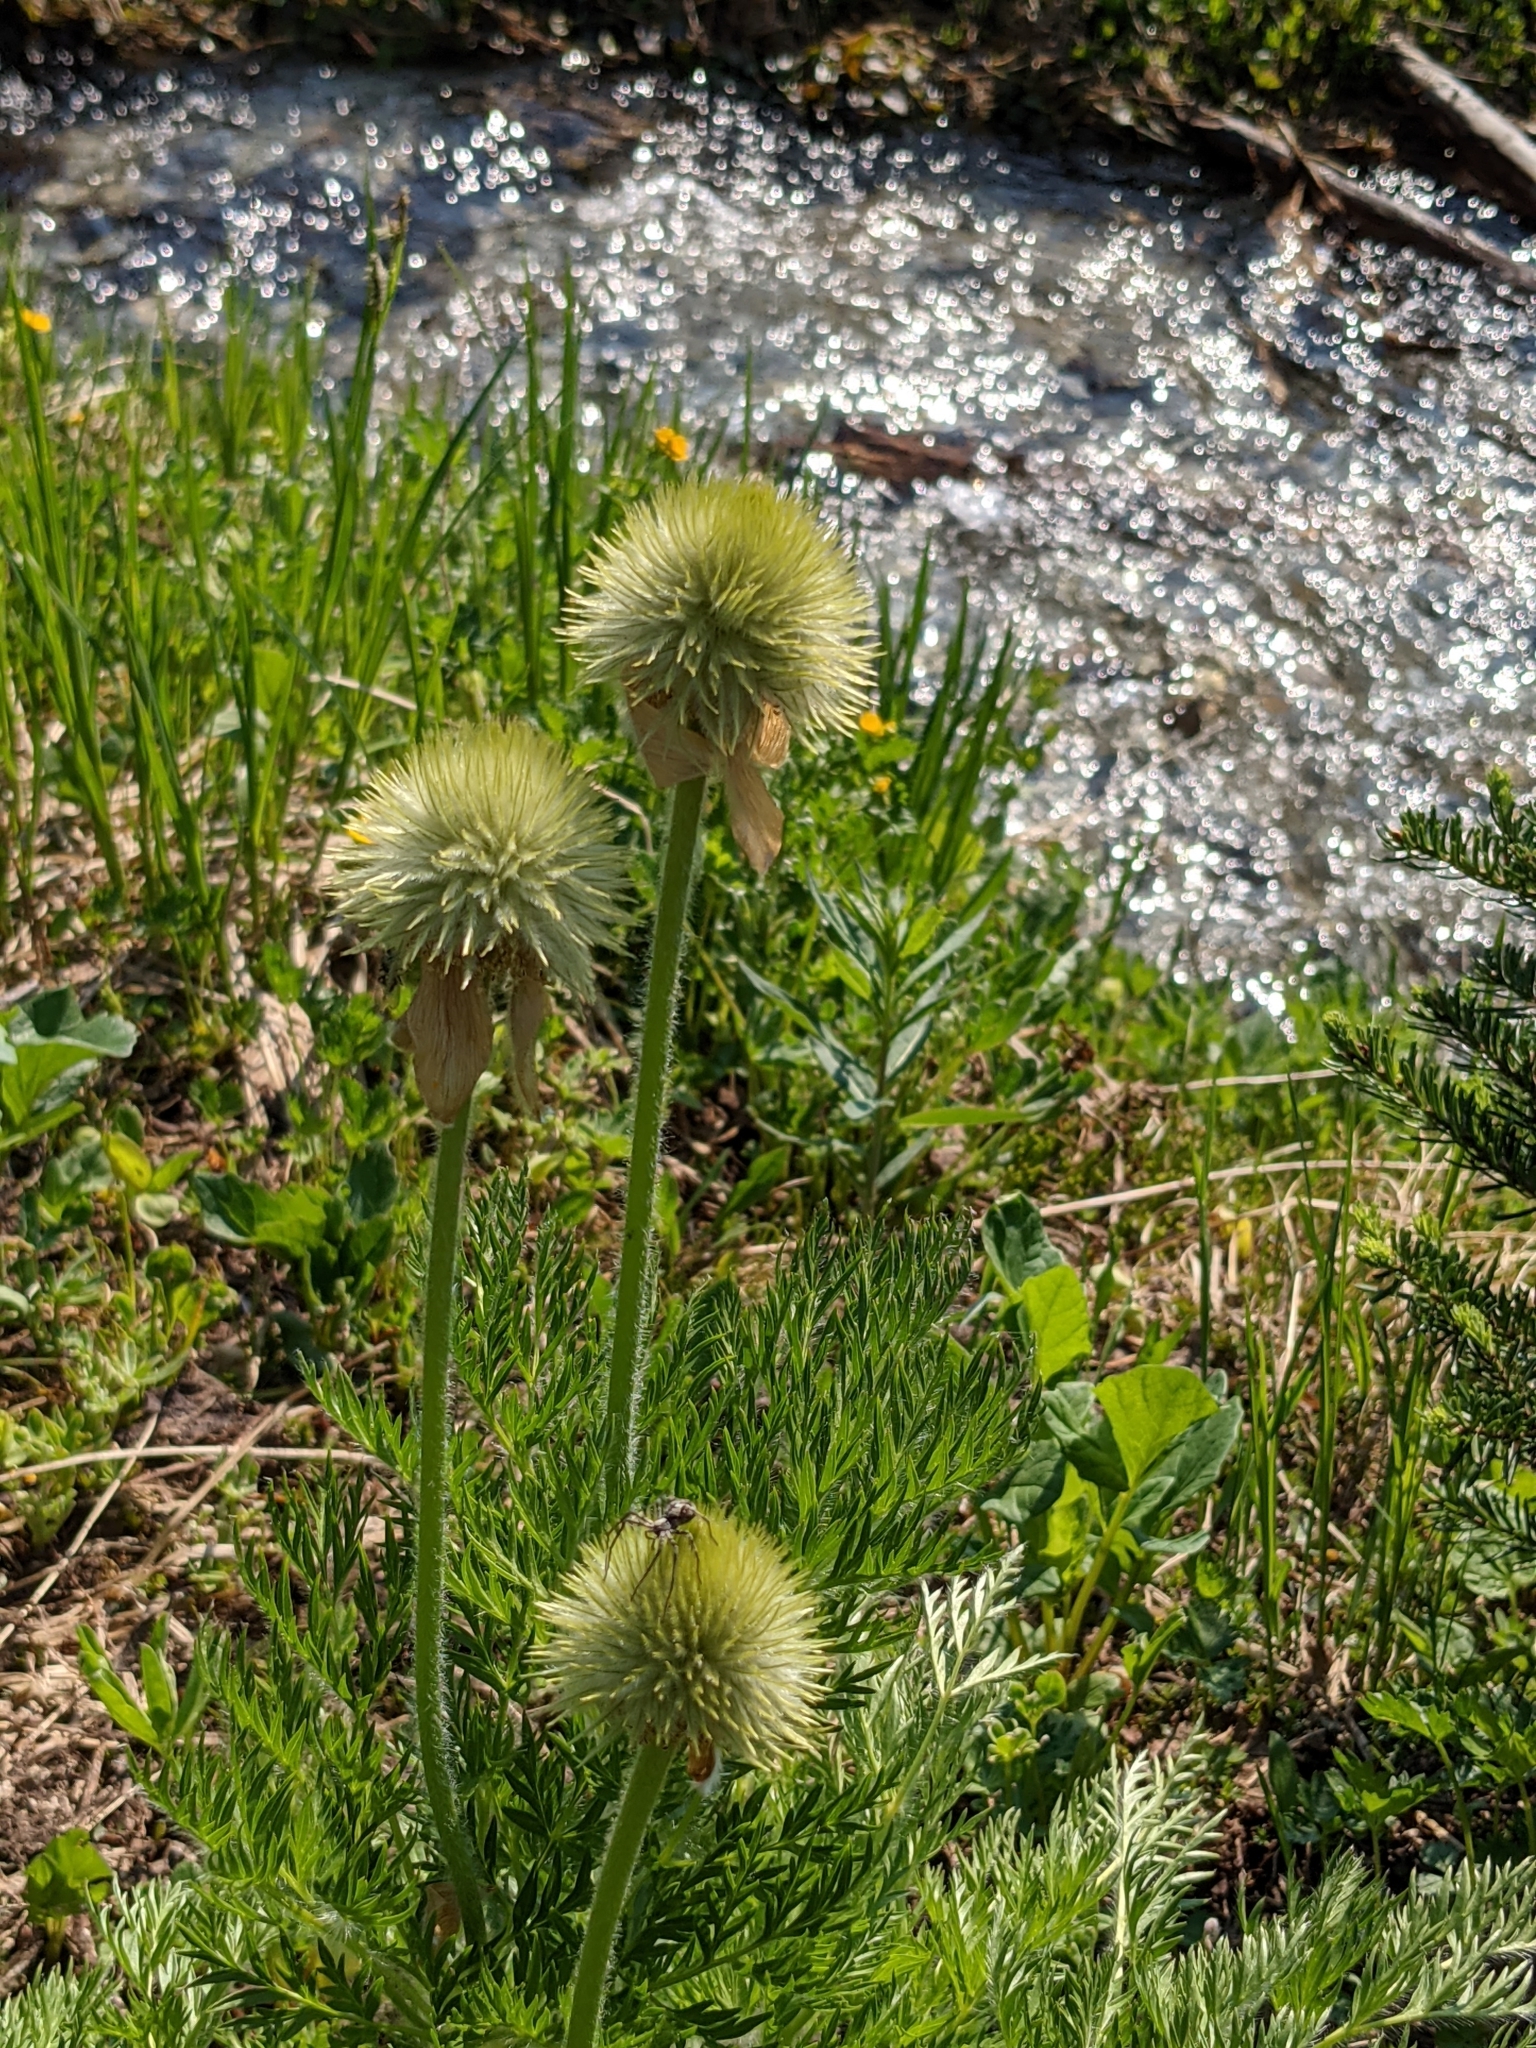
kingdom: Plantae
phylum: Tracheophyta
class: Magnoliopsida
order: Ranunculales
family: Ranunculaceae
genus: Pulsatilla
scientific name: Pulsatilla occidentalis
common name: Mountain pasqueflower
